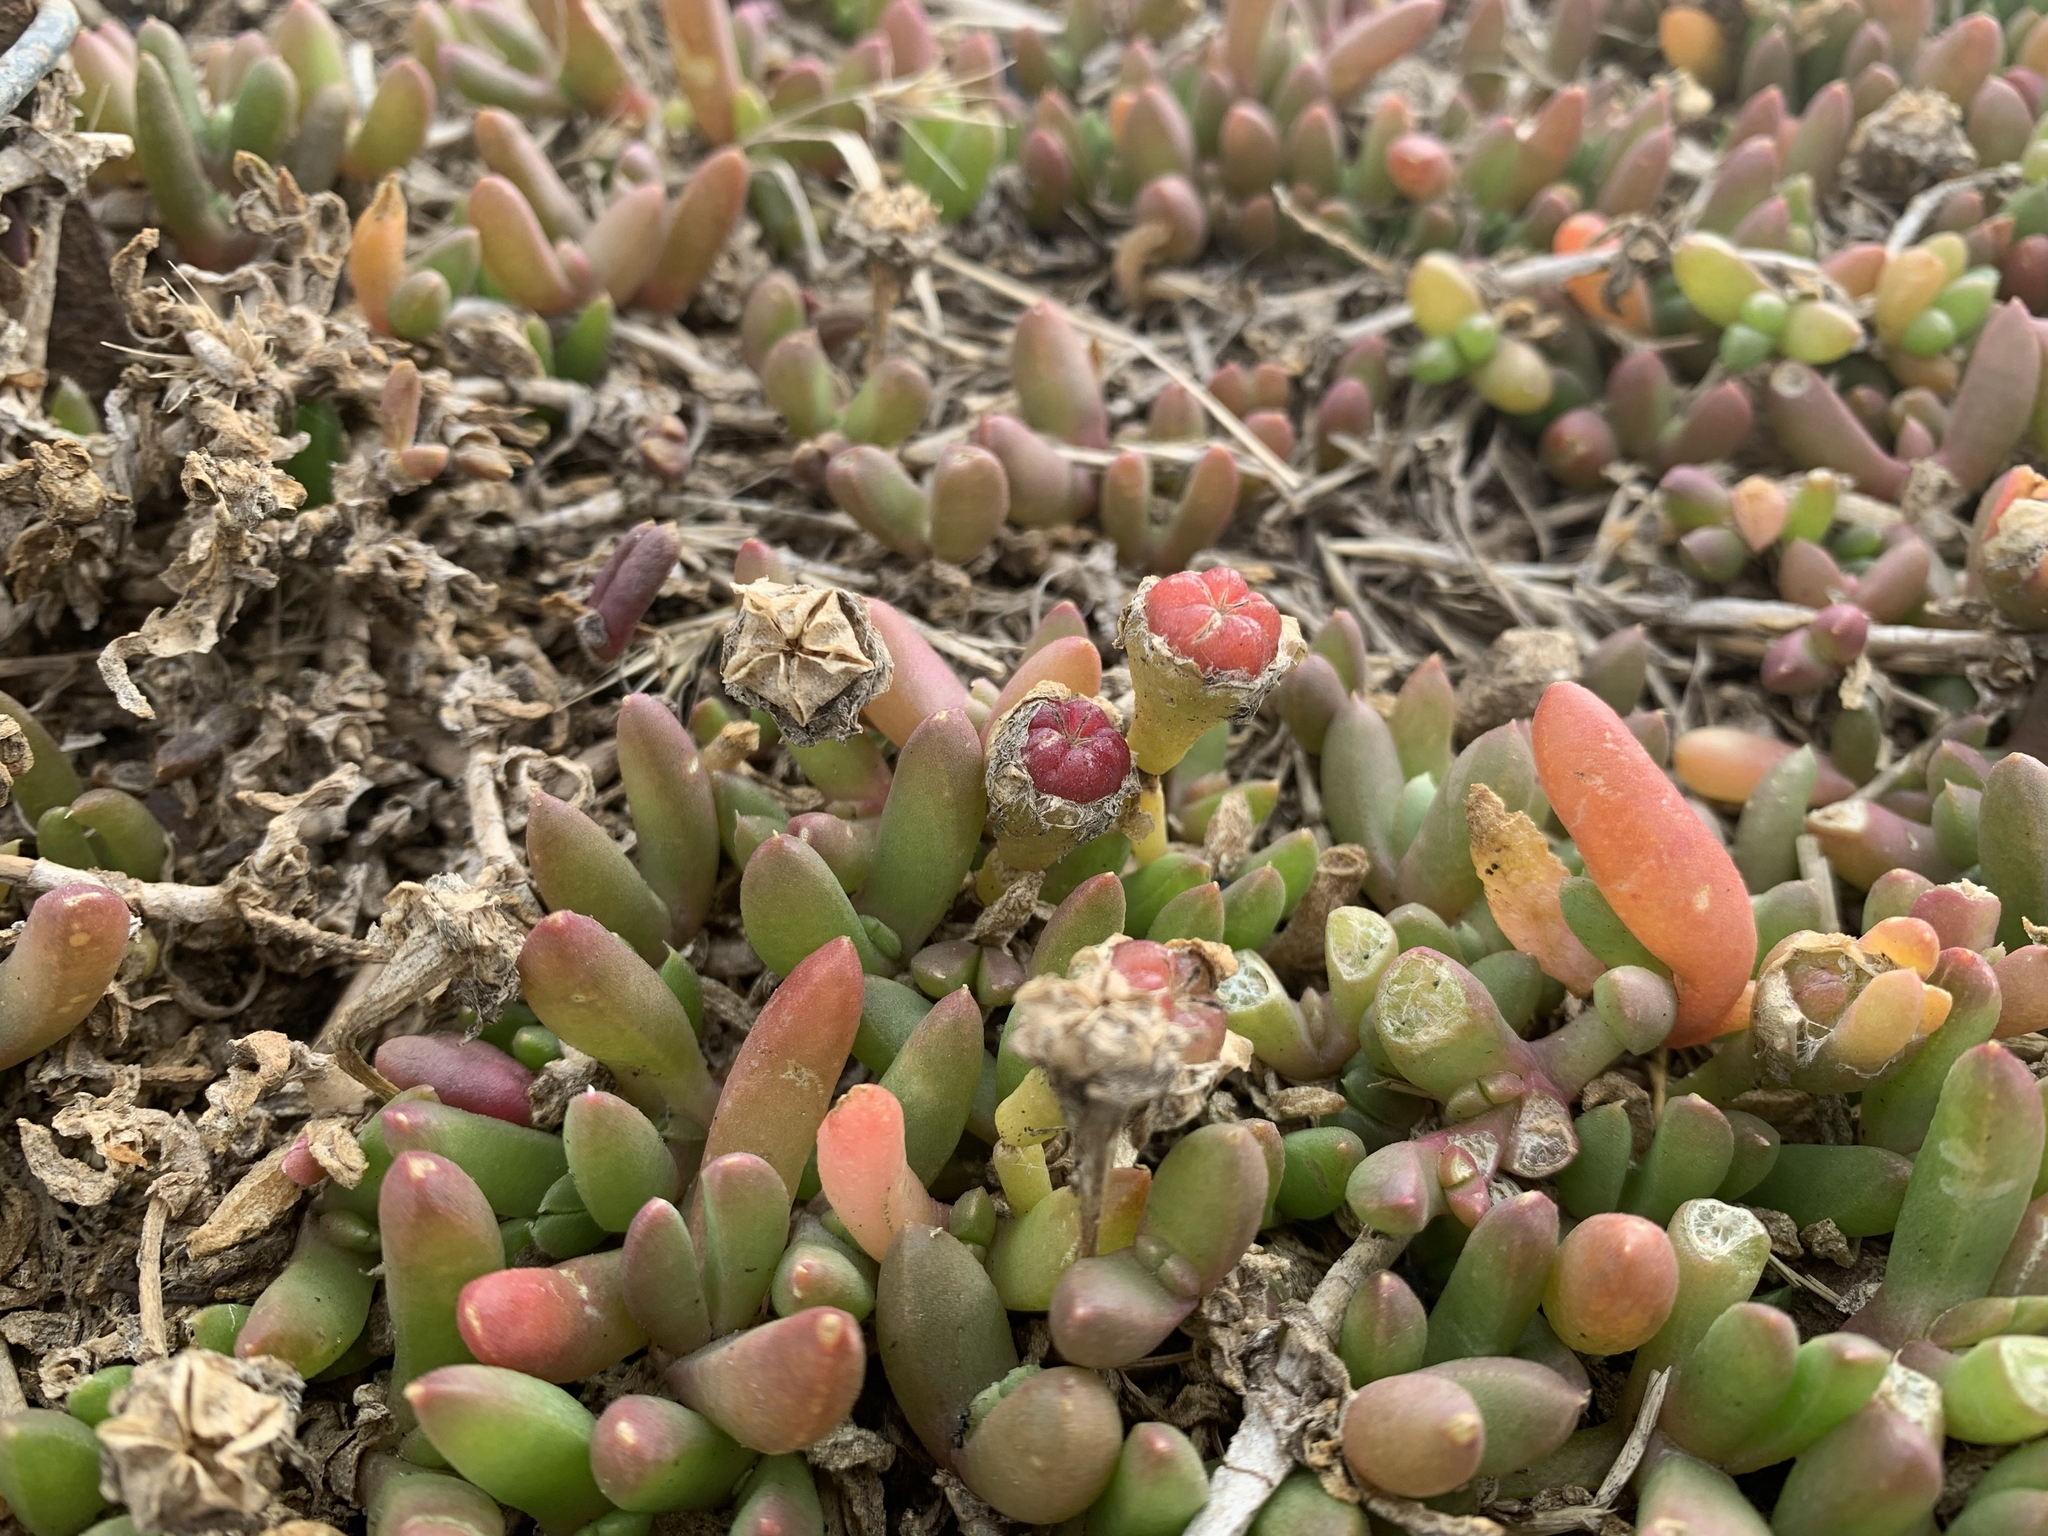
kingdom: Plantae
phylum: Tracheophyta
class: Magnoliopsida
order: Caryophyllales
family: Aizoaceae
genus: Disphyma
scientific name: Disphyma crassifolium
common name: Purple dewplant
